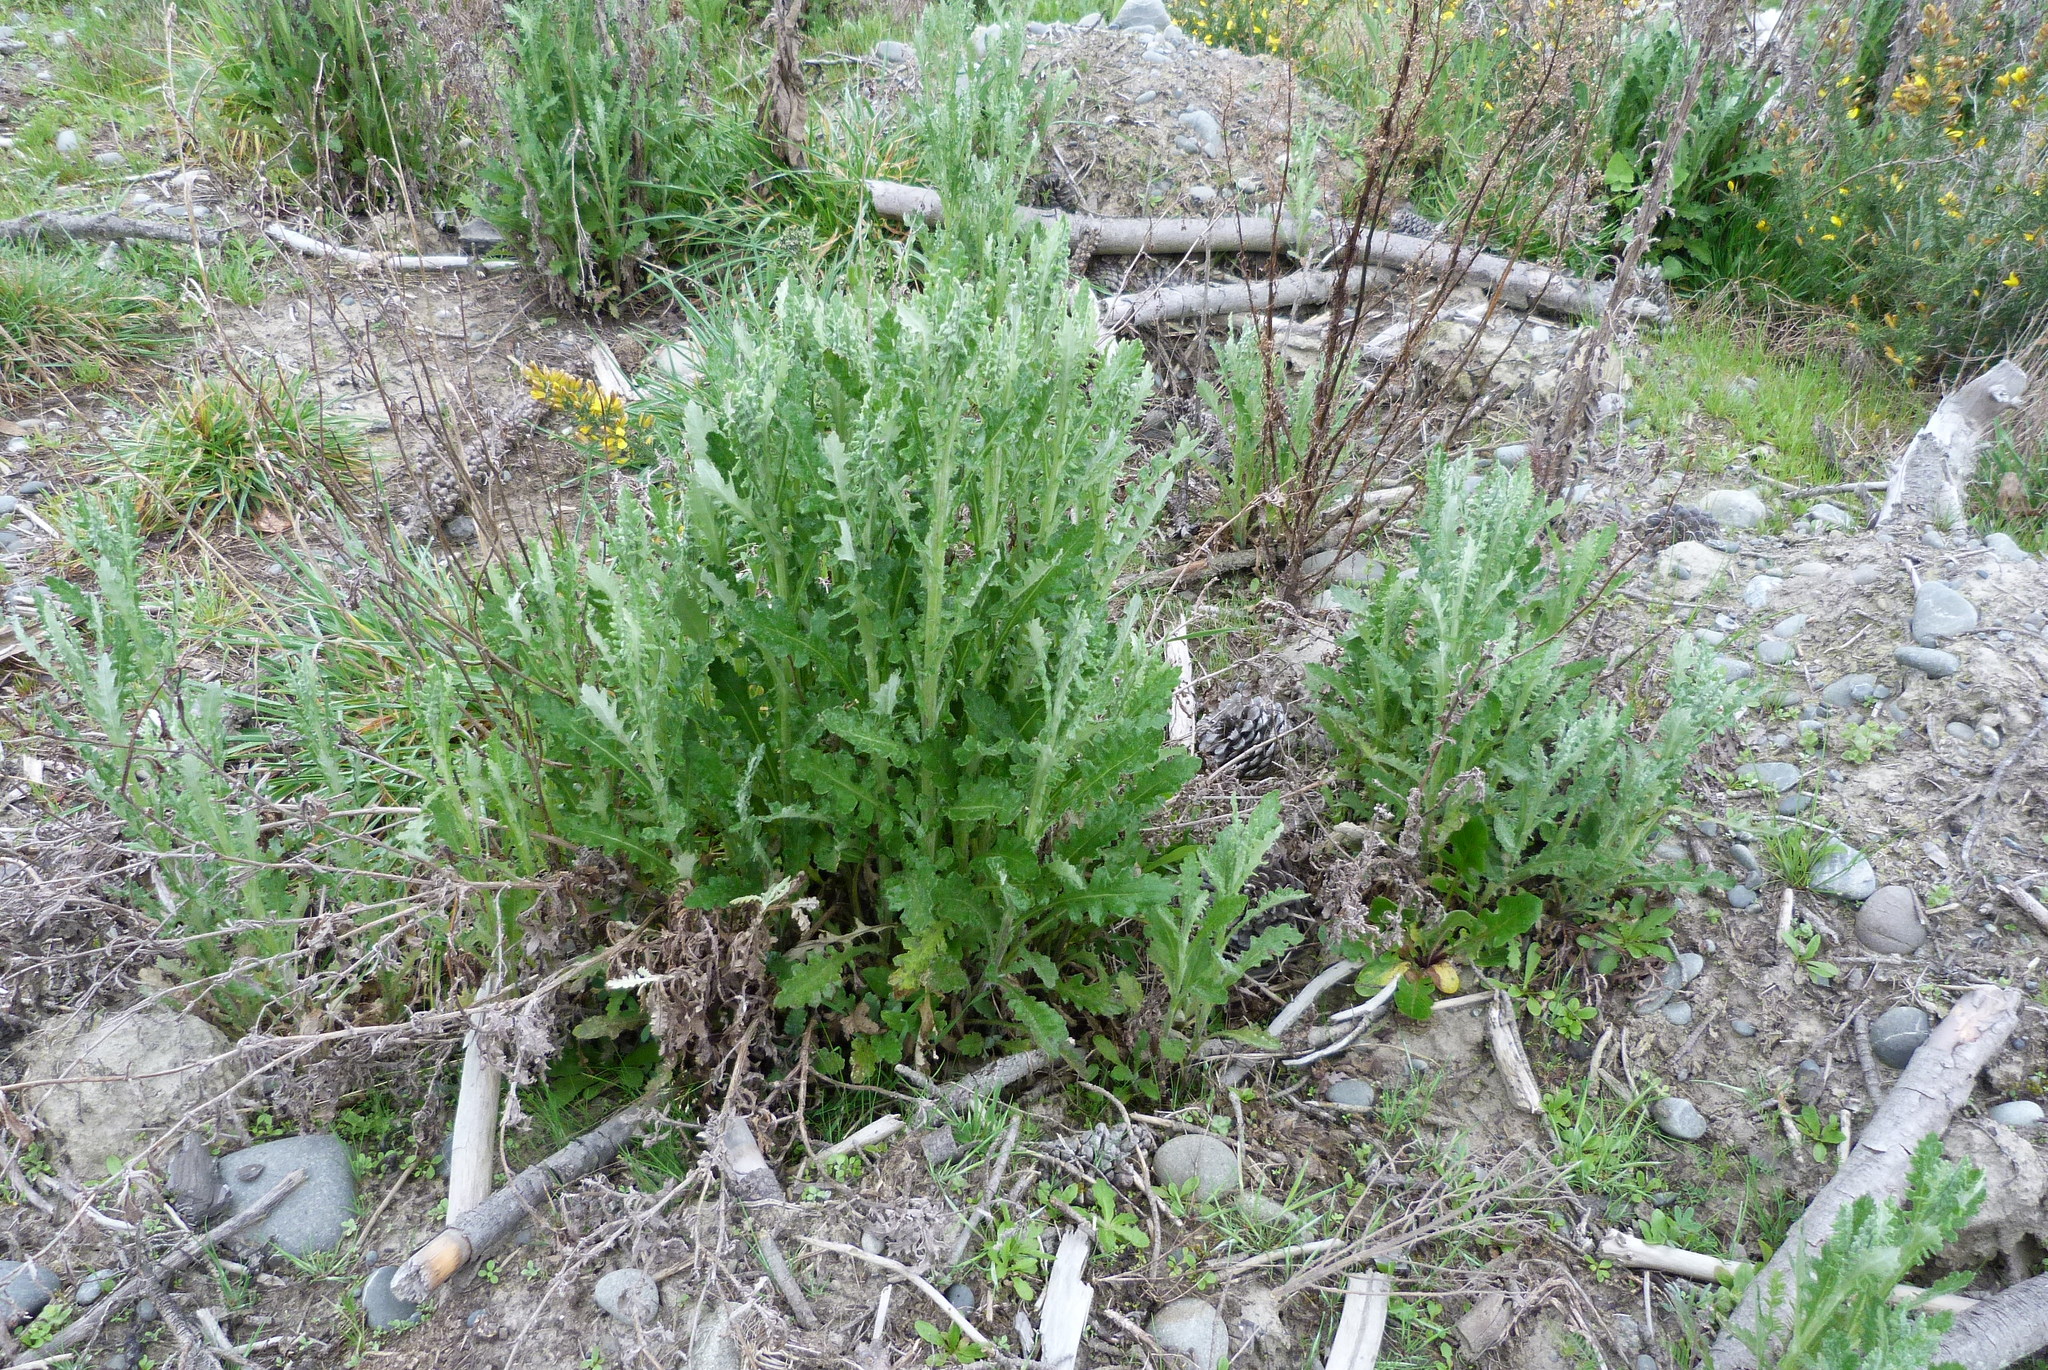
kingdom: Plantae
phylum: Tracheophyta
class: Magnoliopsida
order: Asterales
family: Asteraceae
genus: Senecio
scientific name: Senecio glomeratus
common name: Cutleaf burnweed
